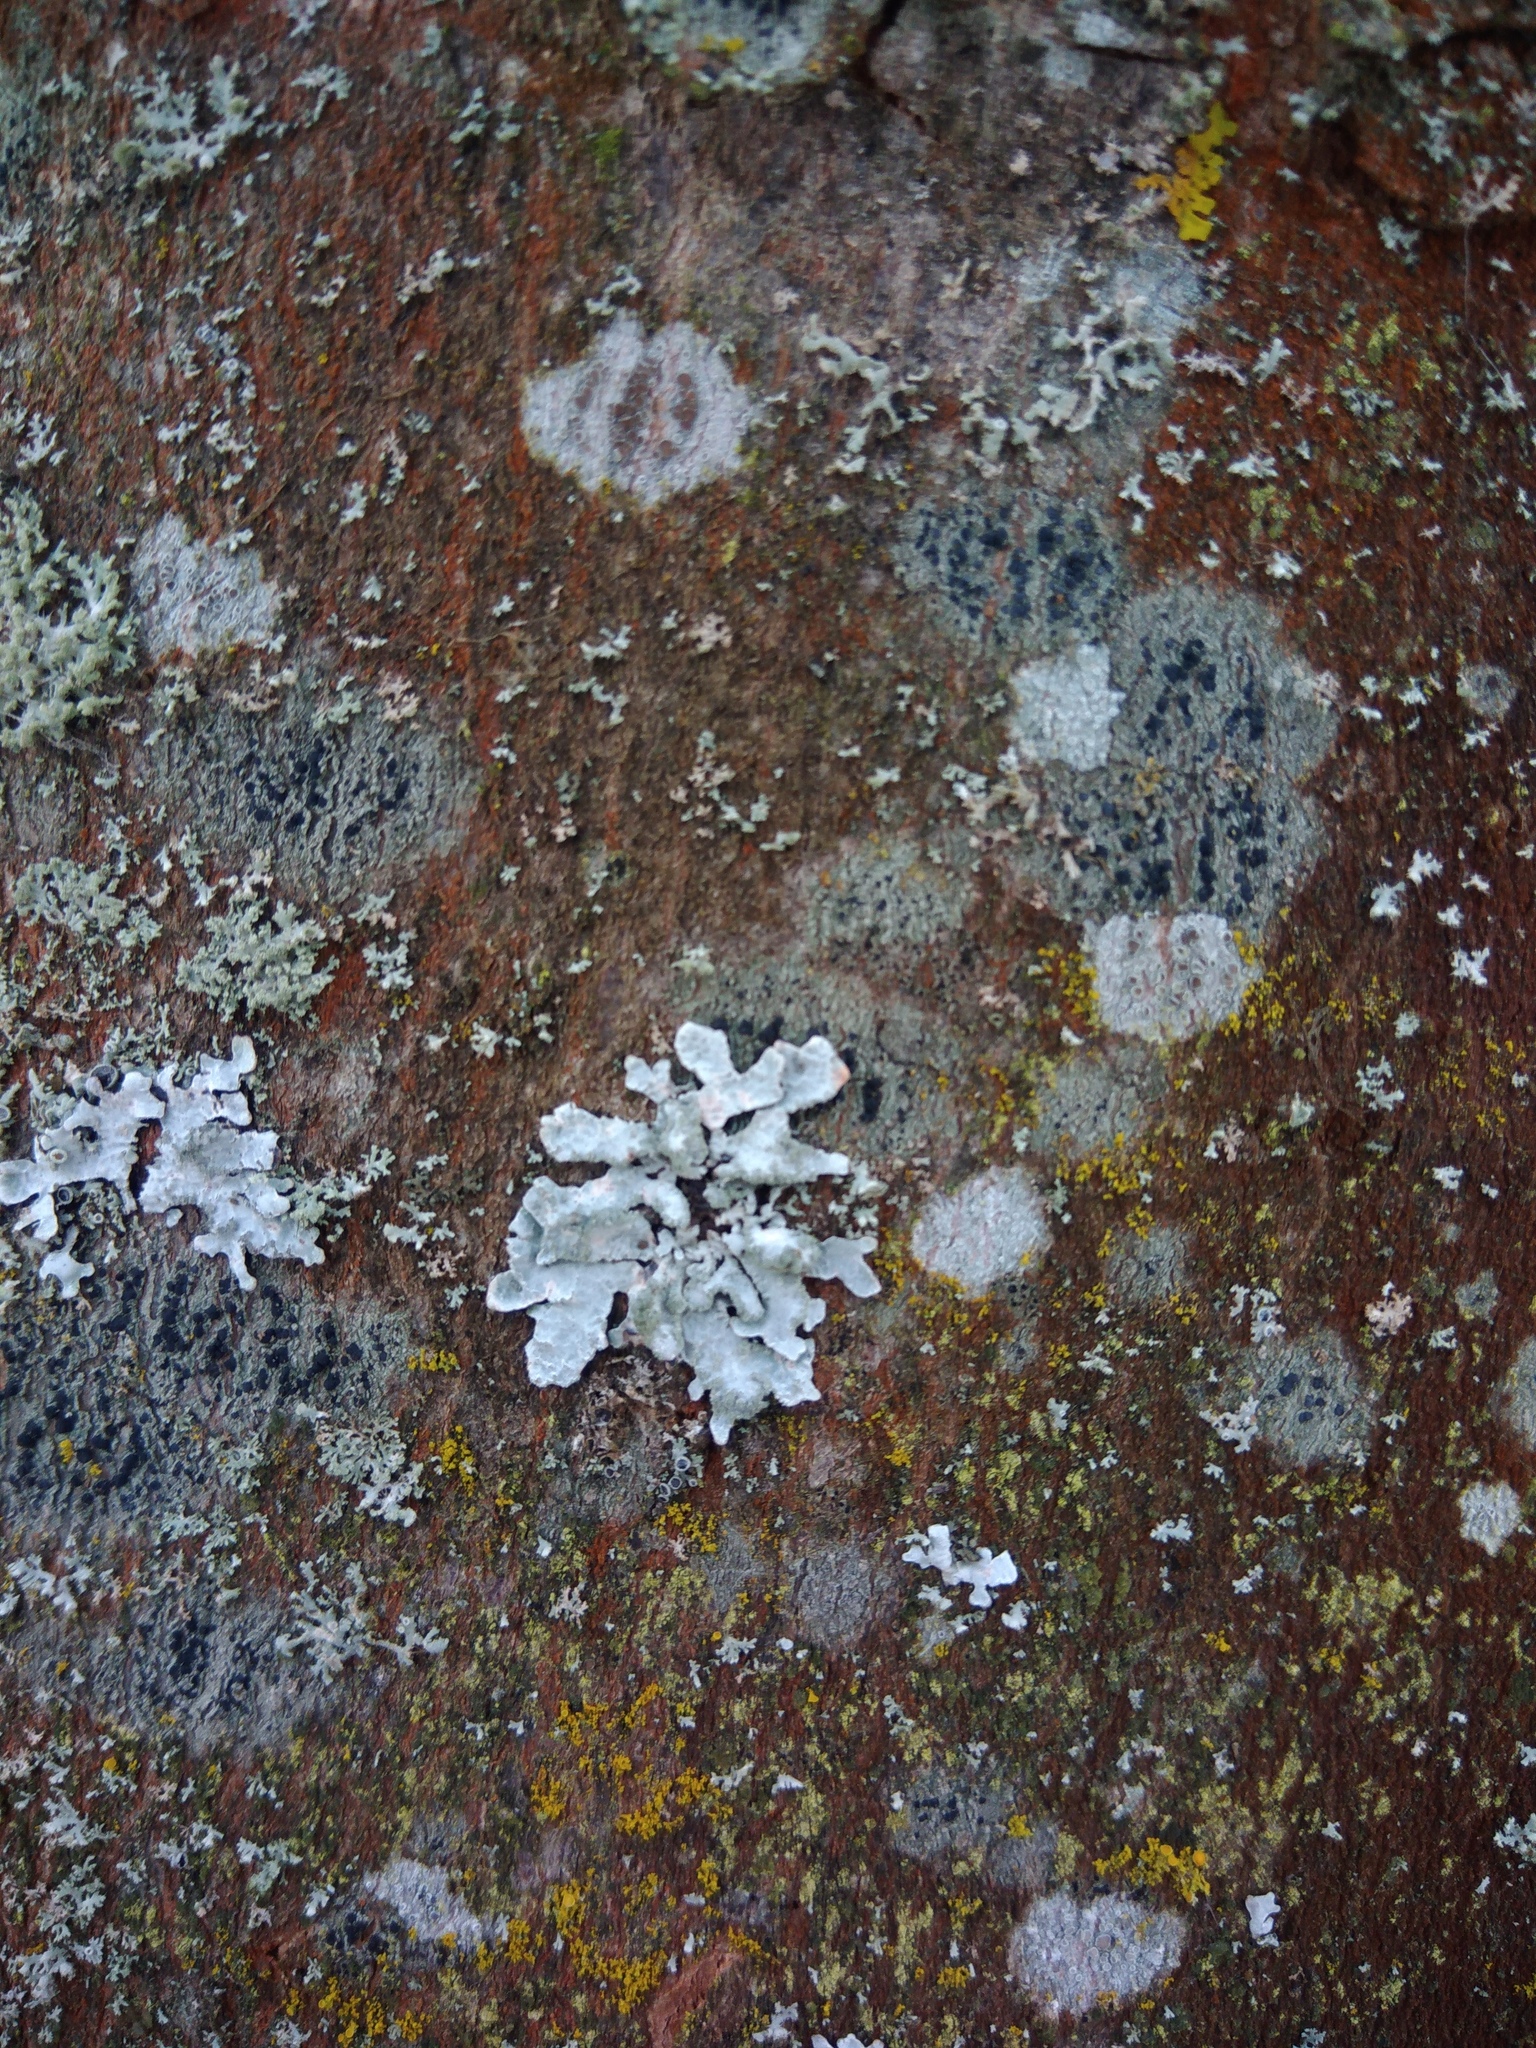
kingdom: Fungi
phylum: Ascomycota
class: Lecanoromycetes
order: Lecanorales
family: Parmeliaceae
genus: Parmelia
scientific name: Parmelia sulcata
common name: Netted shield lichen
